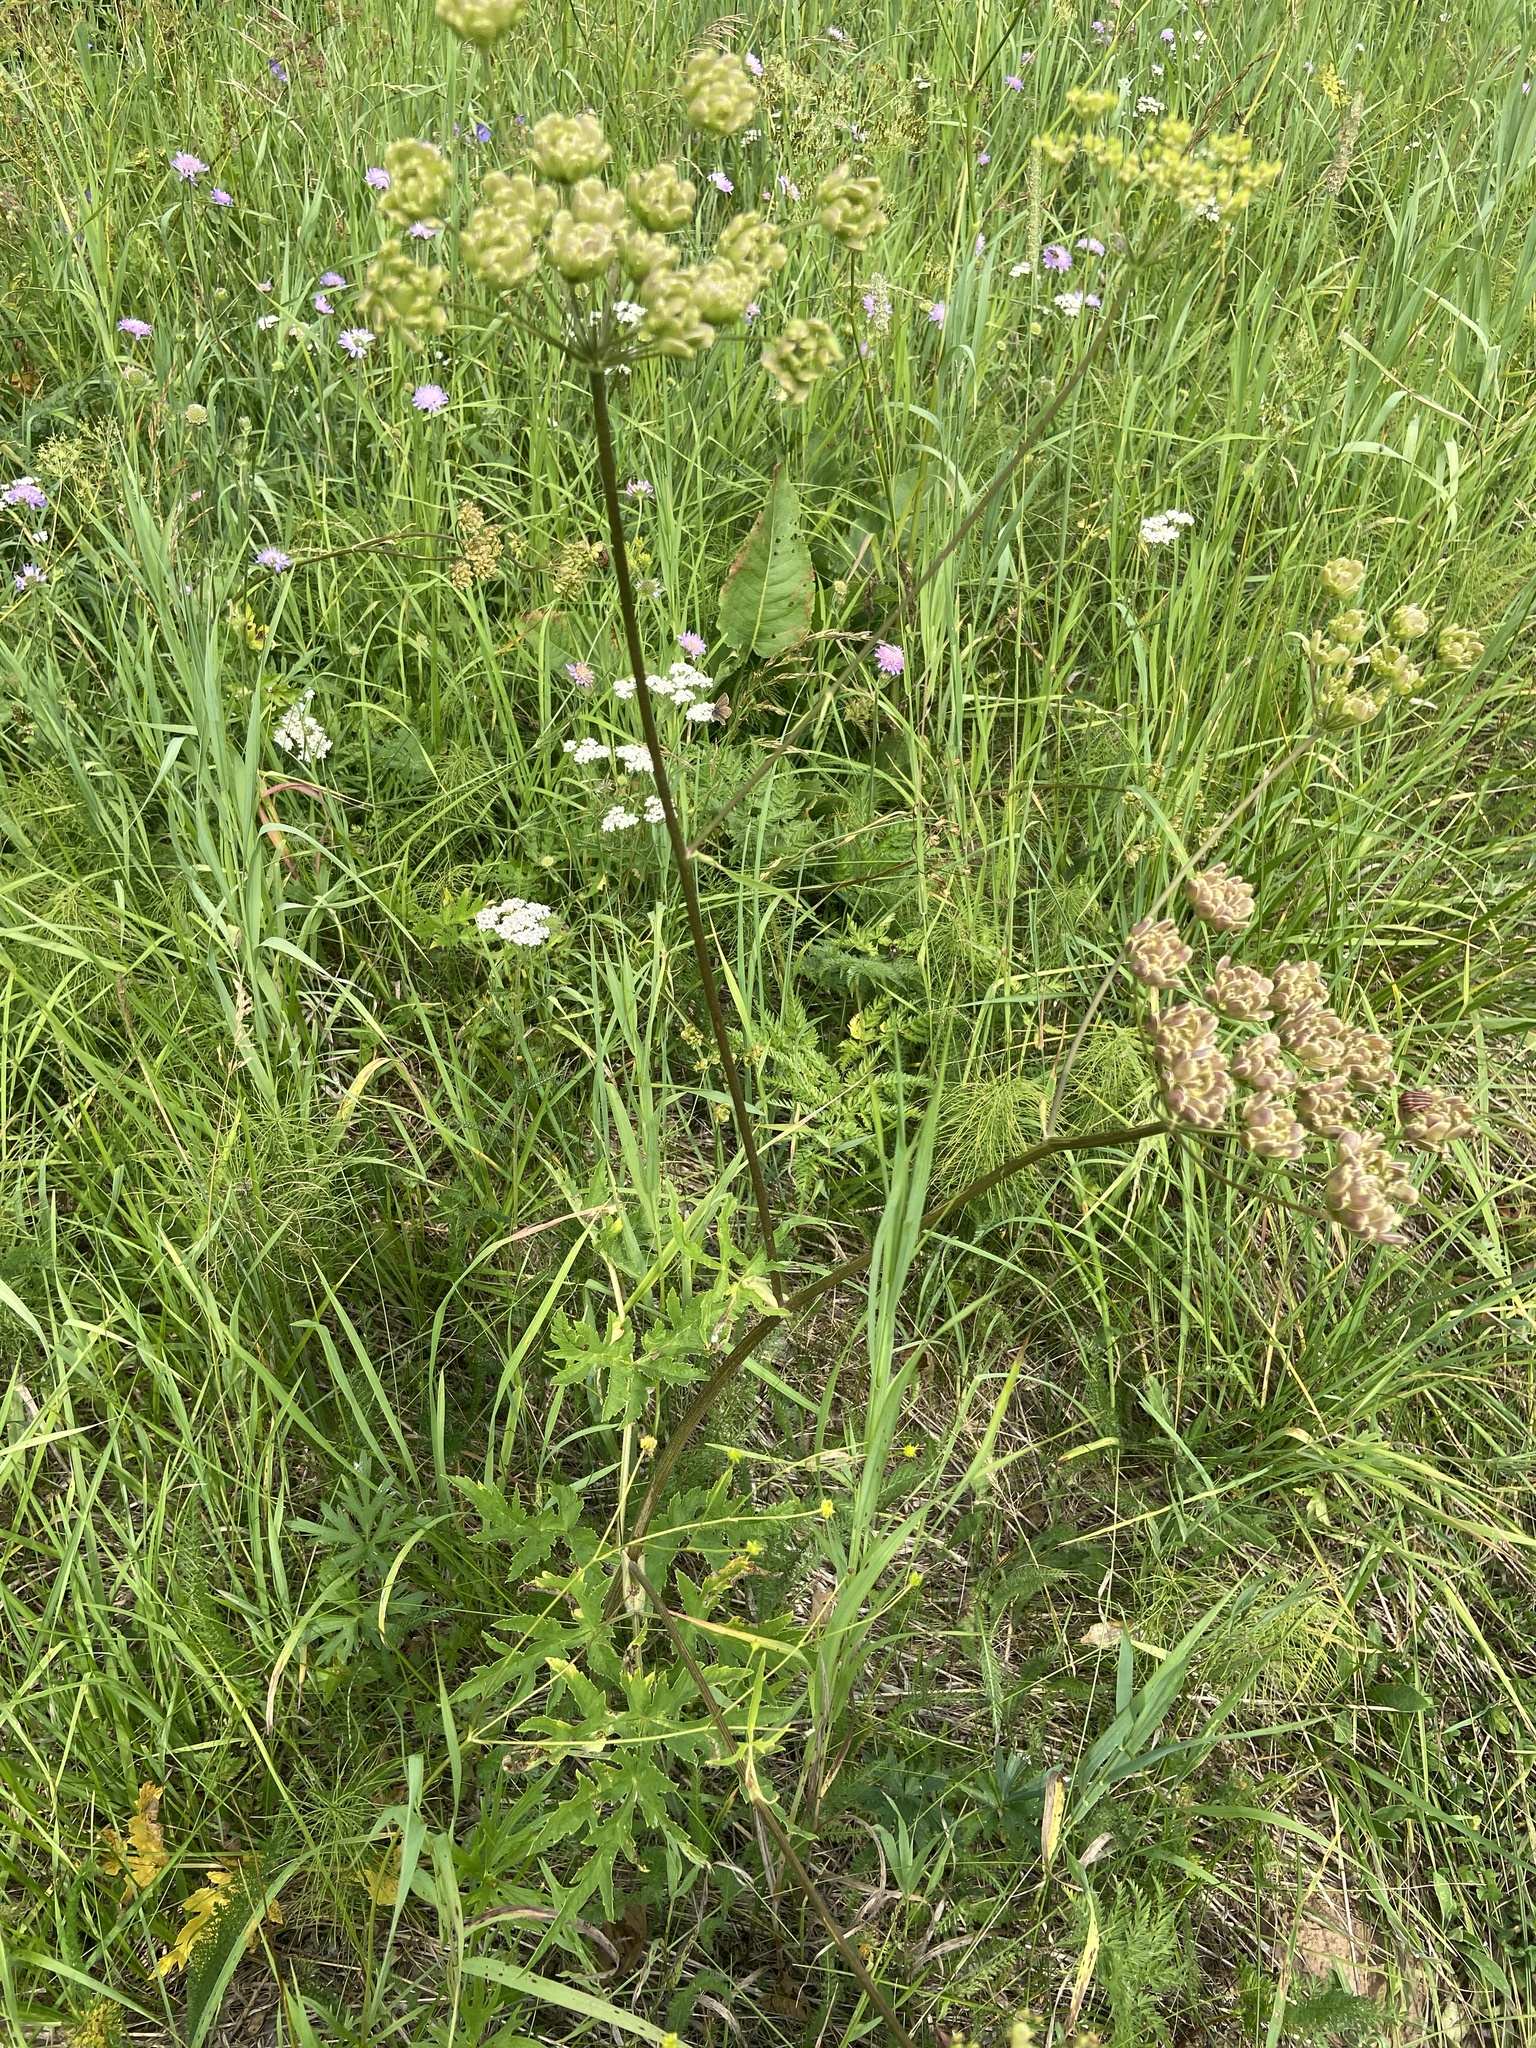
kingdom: Plantae
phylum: Tracheophyta
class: Magnoliopsida
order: Apiales
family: Apiaceae
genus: Heracleum
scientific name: Heracleum sphondylium
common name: Hogweed
